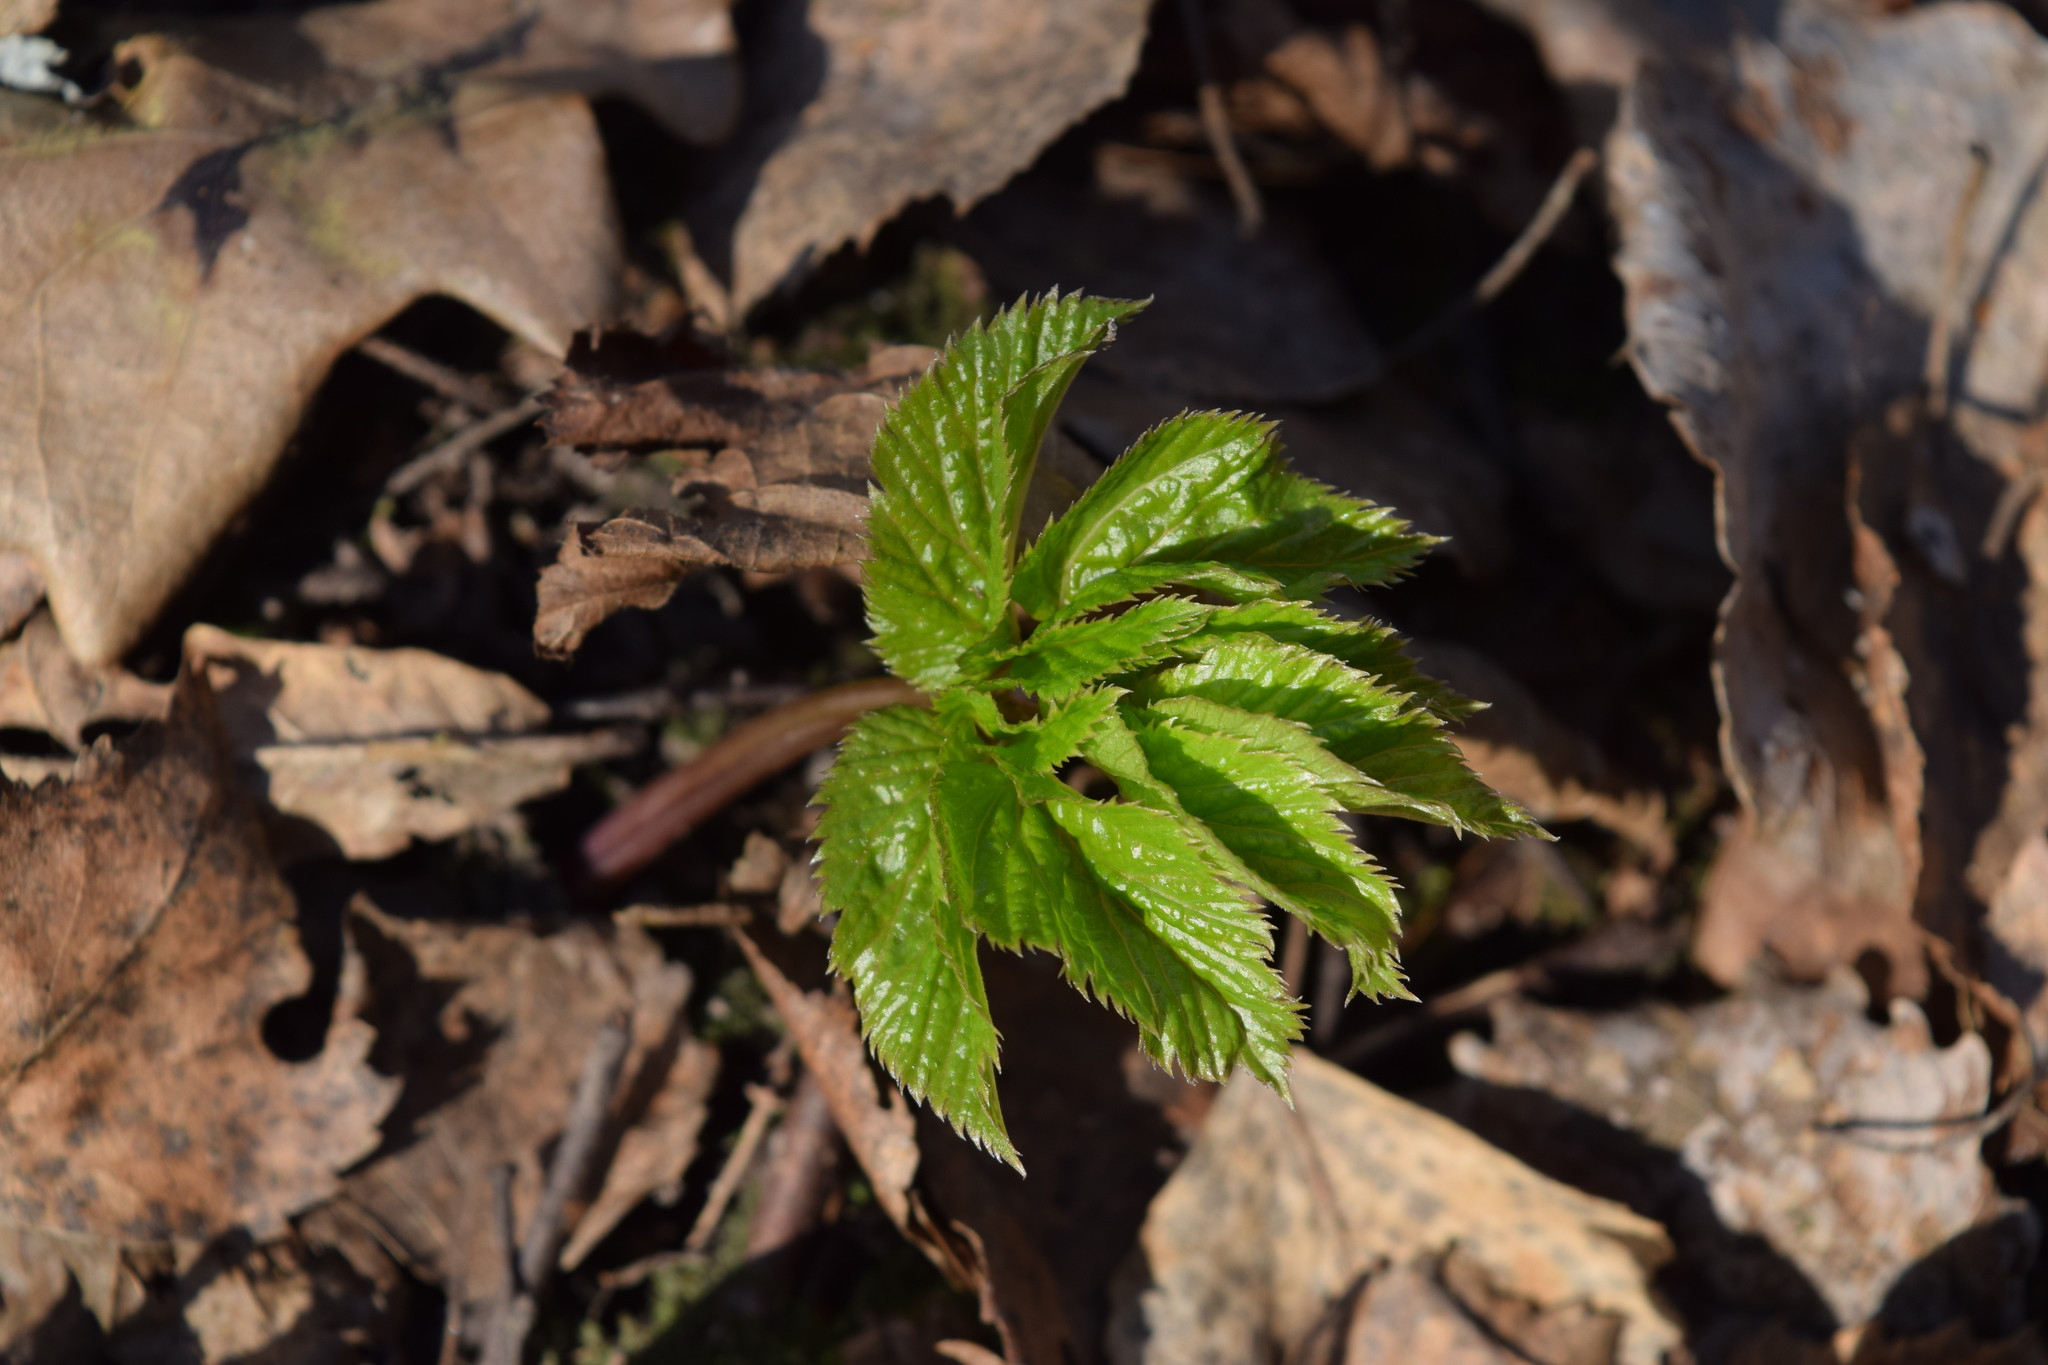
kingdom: Plantae
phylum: Tracheophyta
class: Magnoliopsida
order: Apiales
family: Apiaceae
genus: Aegopodium
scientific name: Aegopodium podagraria
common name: Ground-elder
